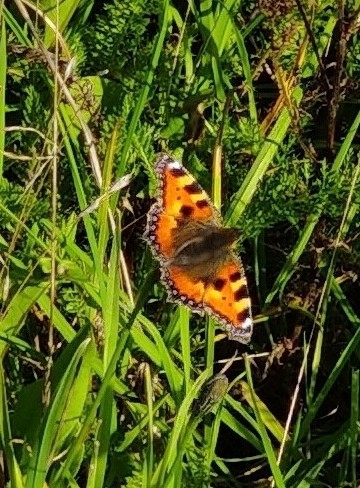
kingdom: Animalia
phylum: Arthropoda
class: Insecta
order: Lepidoptera
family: Nymphalidae
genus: Aglais
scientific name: Aglais urticae
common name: Small tortoiseshell
